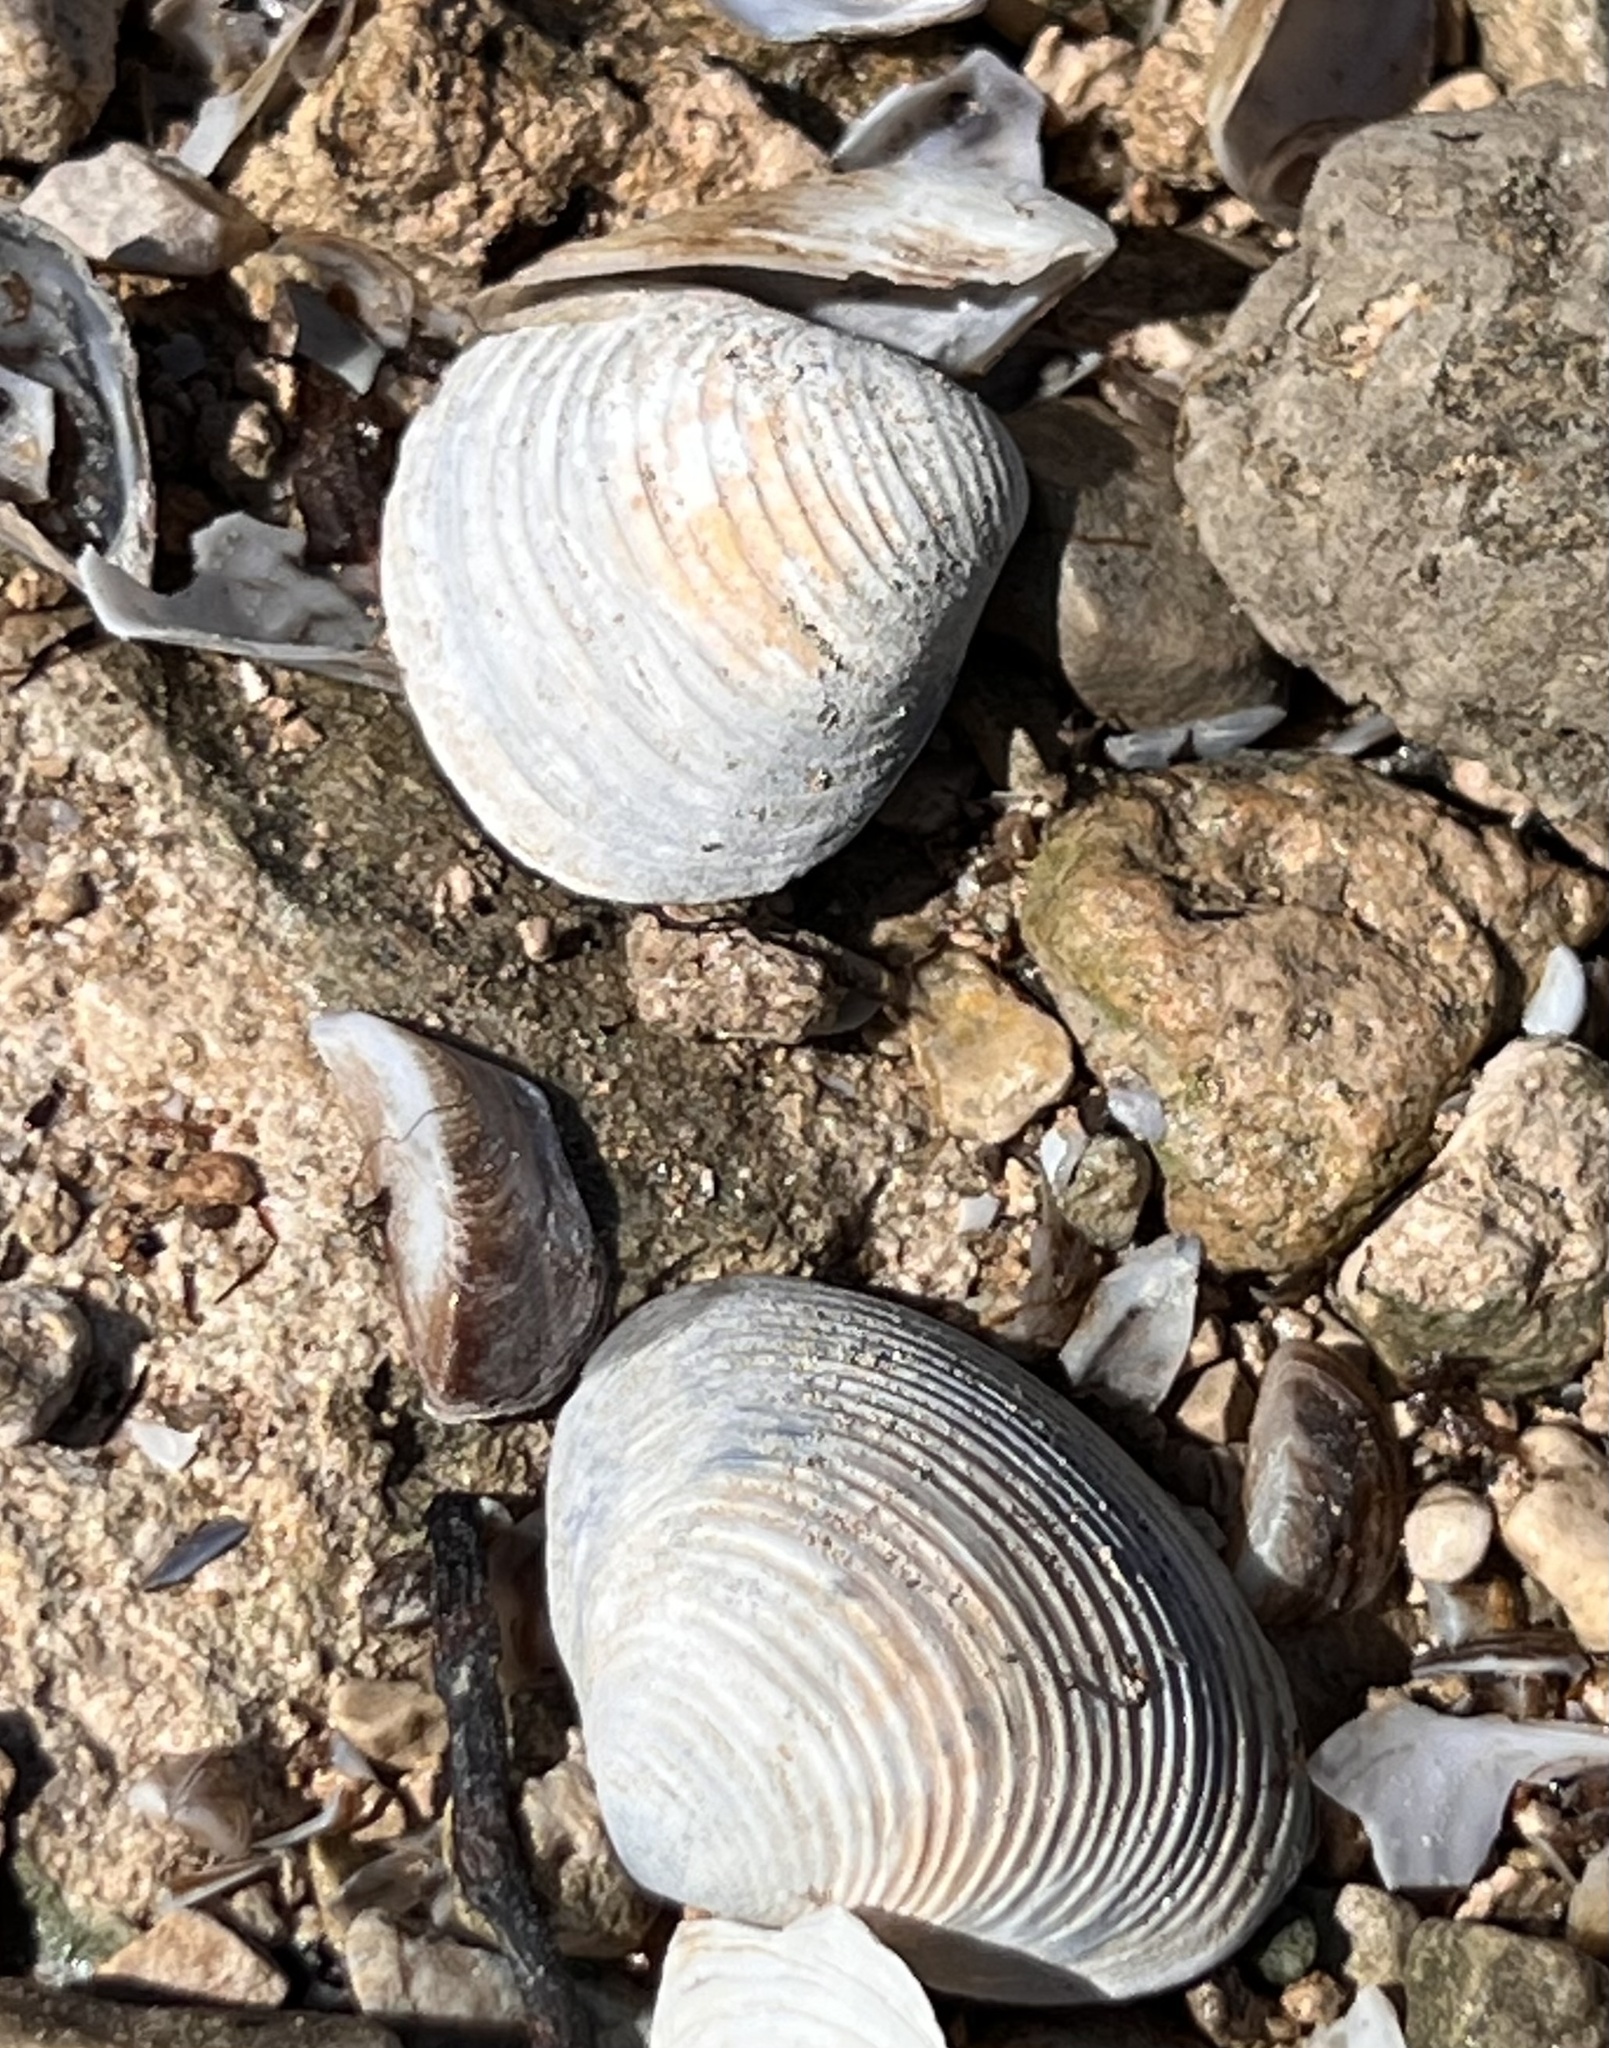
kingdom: Animalia
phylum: Mollusca
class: Bivalvia
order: Venerida
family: Cyrenidae
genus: Corbicula
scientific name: Corbicula fluminea
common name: Asian clam
